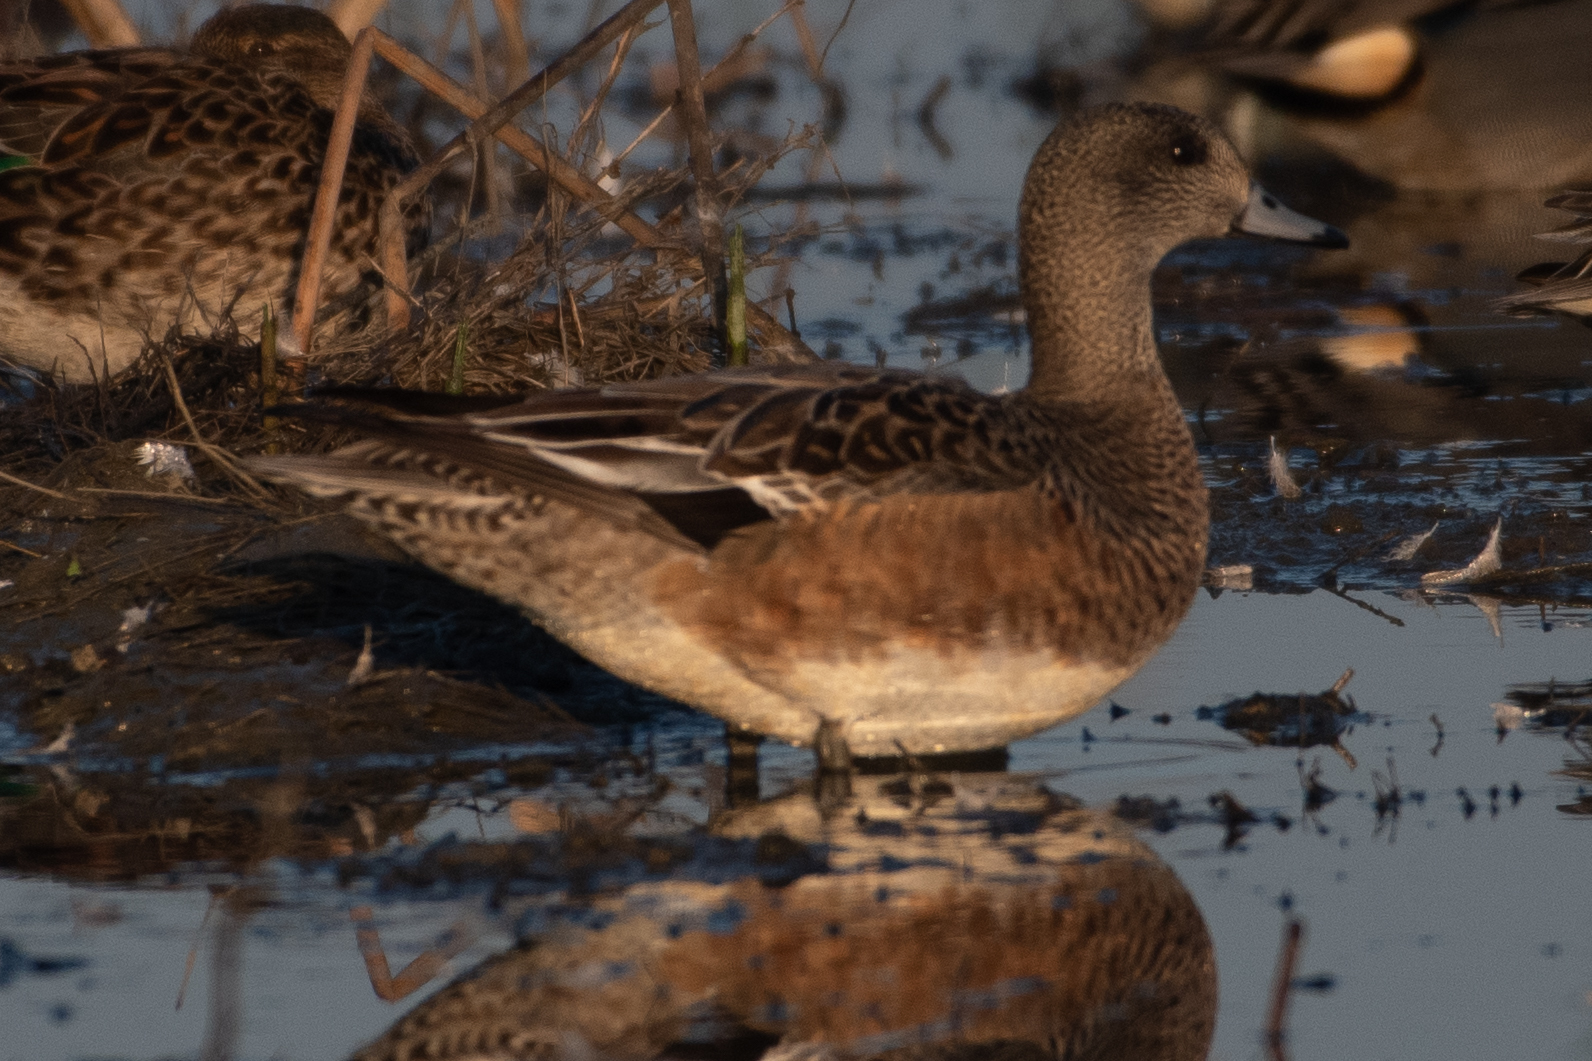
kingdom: Animalia
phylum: Chordata
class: Aves
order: Anseriformes
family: Anatidae
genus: Mareca
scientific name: Mareca americana
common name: American wigeon
